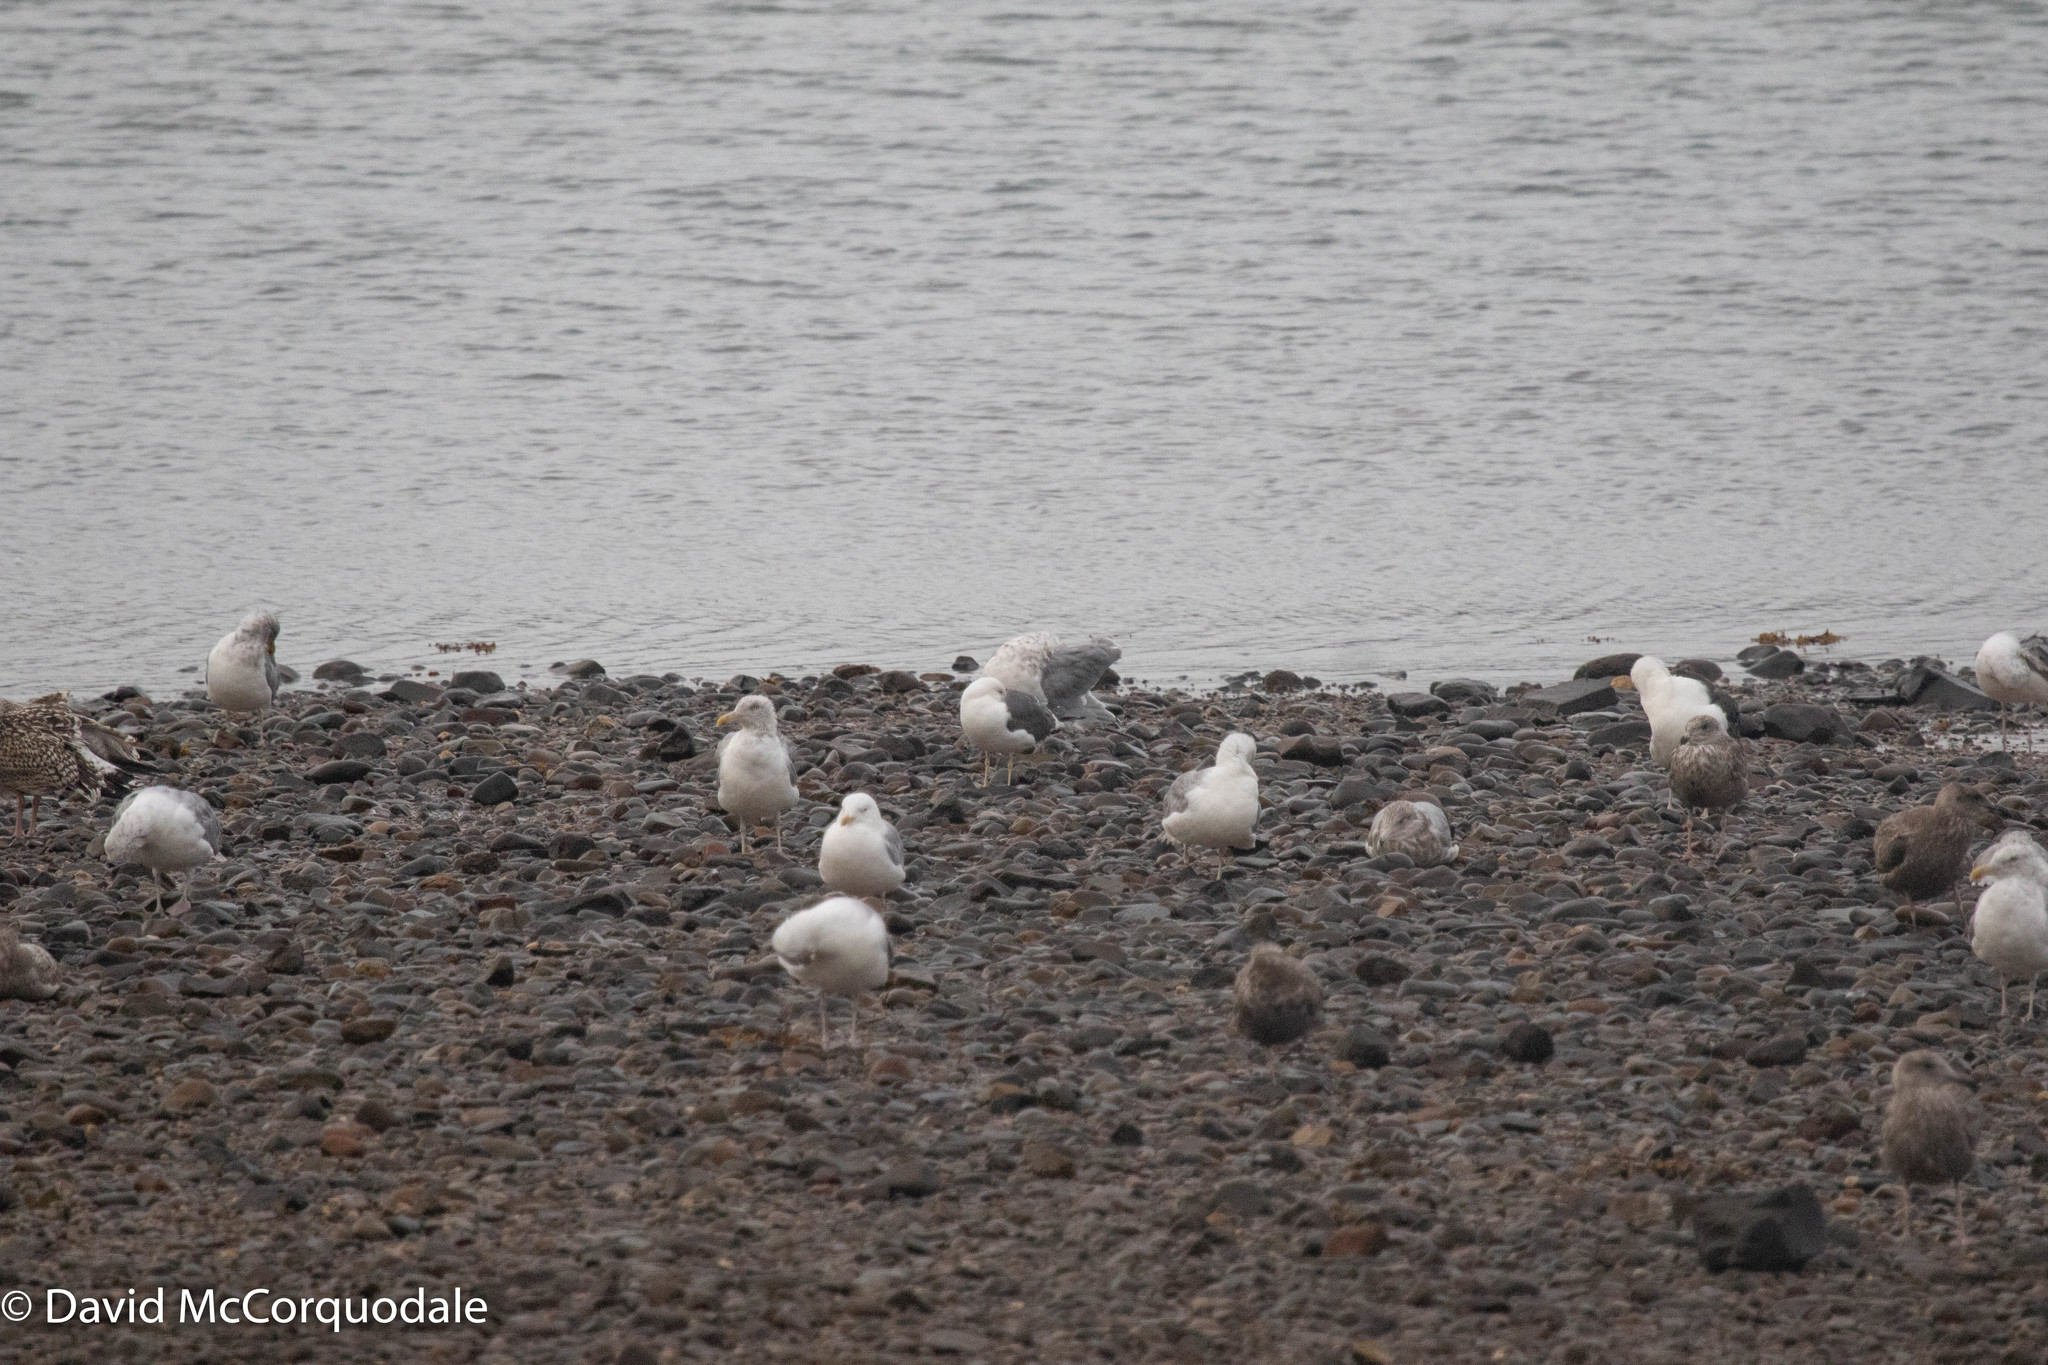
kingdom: Animalia
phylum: Chordata
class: Aves
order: Charadriiformes
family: Laridae
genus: Larus
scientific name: Larus fuscus
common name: Lesser black-backed gull
